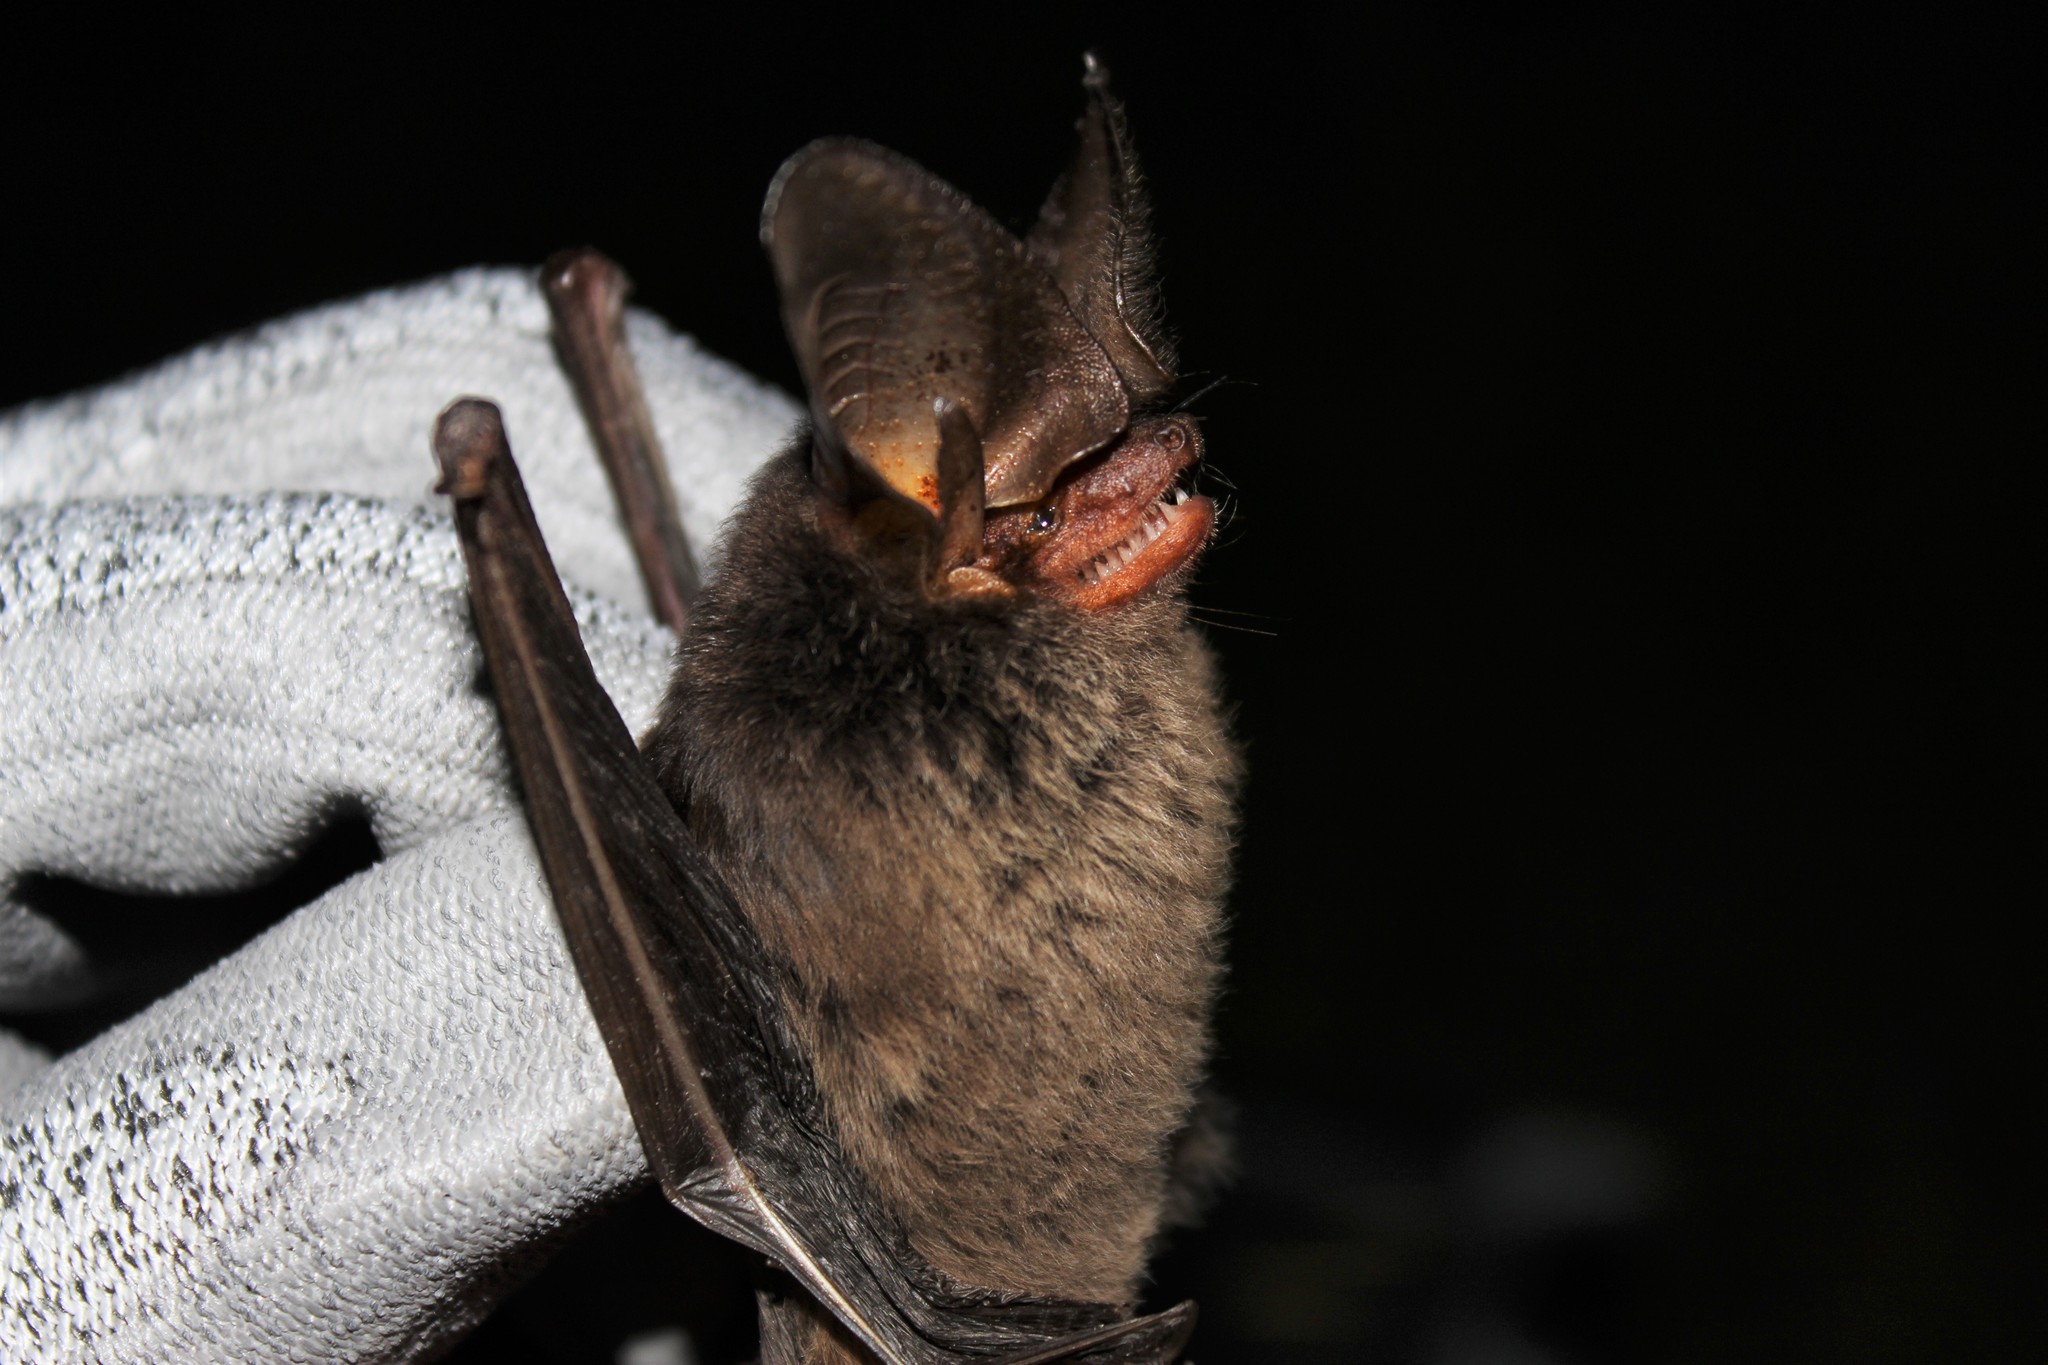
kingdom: Animalia
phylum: Chordata
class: Mammalia
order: Chiroptera
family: Vespertilionidae
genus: Histiotus
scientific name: Histiotus velatus
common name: Tropical big-eared brown bat
